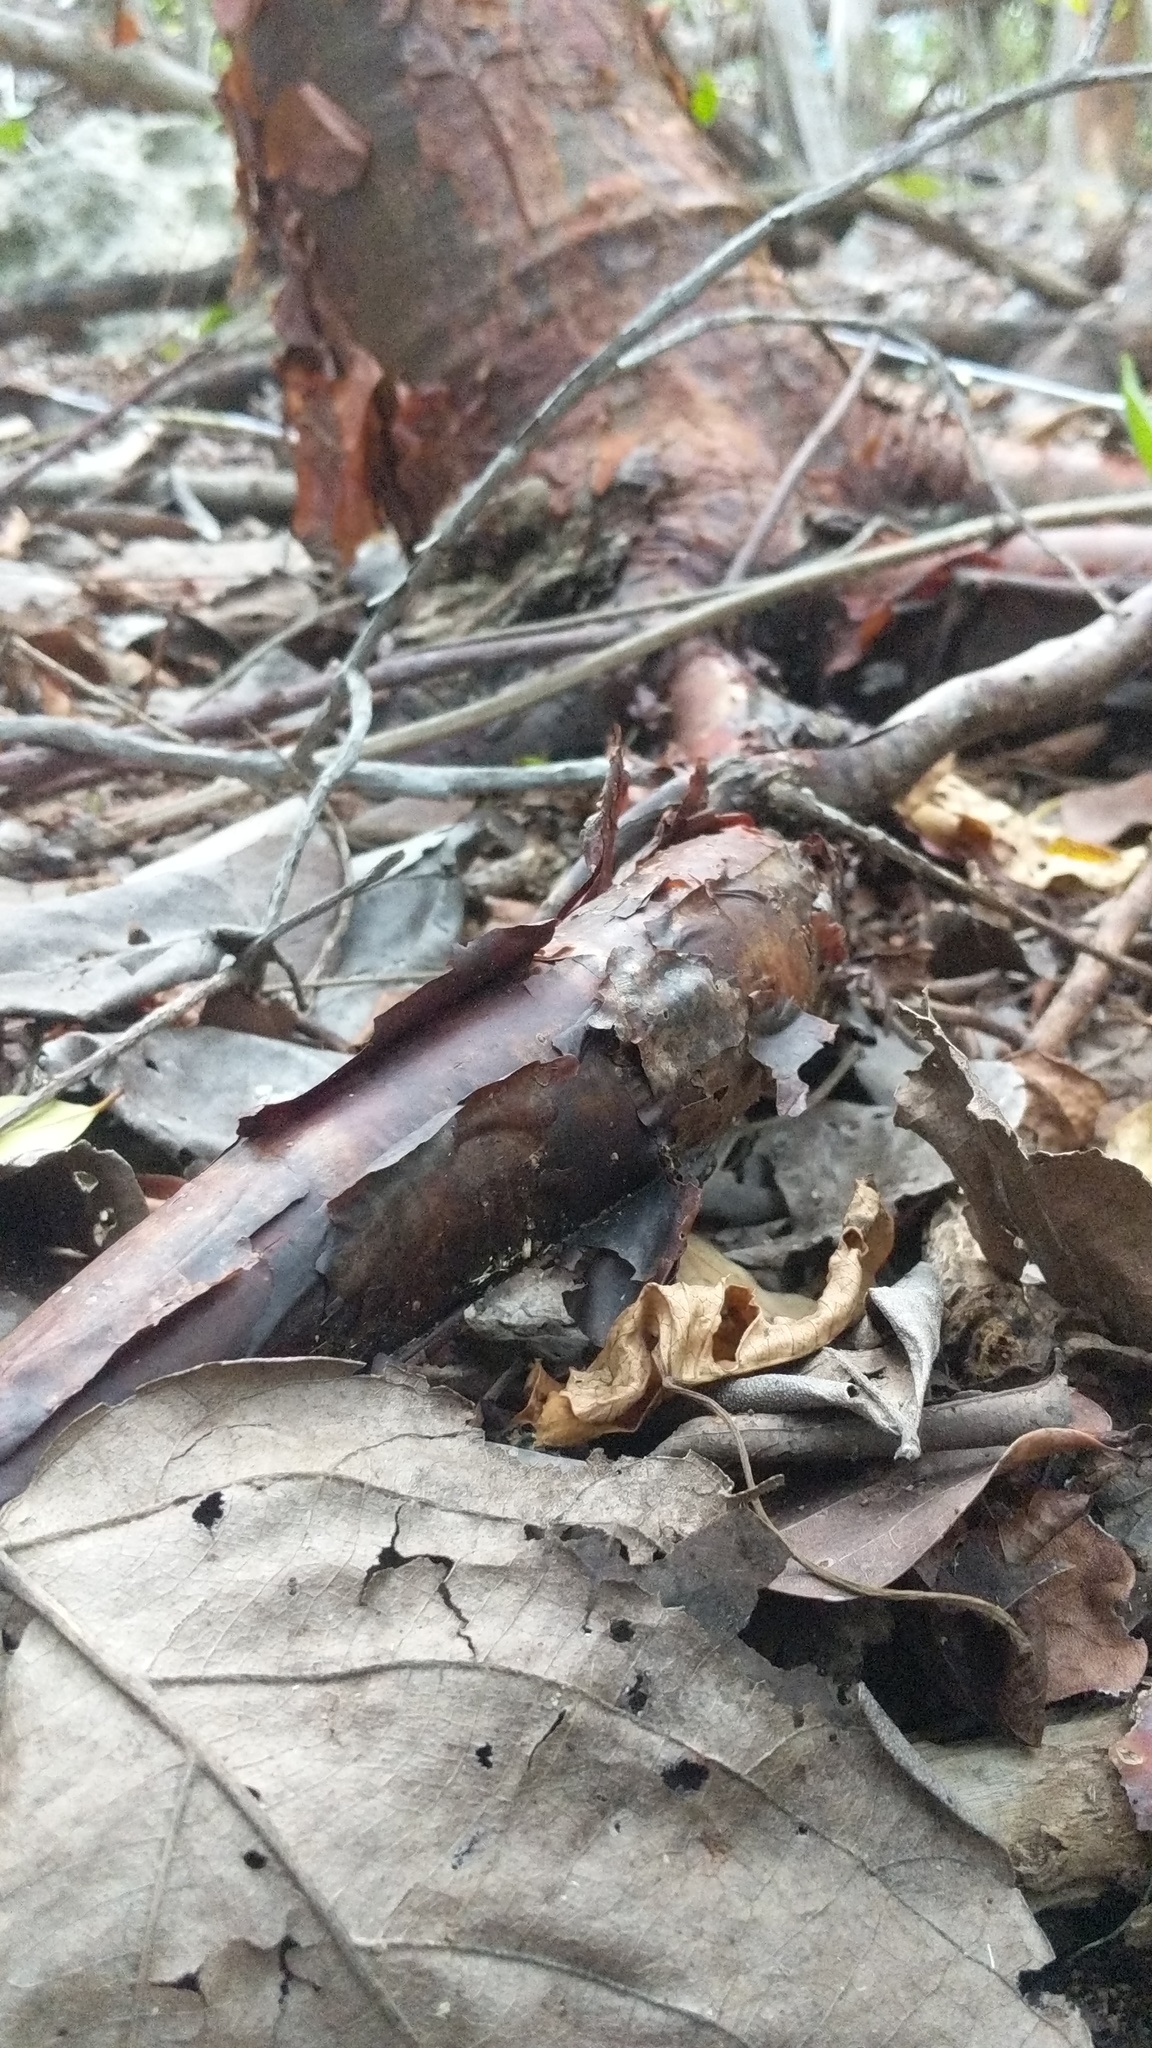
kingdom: Plantae
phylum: Tracheophyta
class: Magnoliopsida
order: Sapindales
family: Burseraceae
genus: Bursera
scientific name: Bursera simaruba
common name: Turpentine tree
